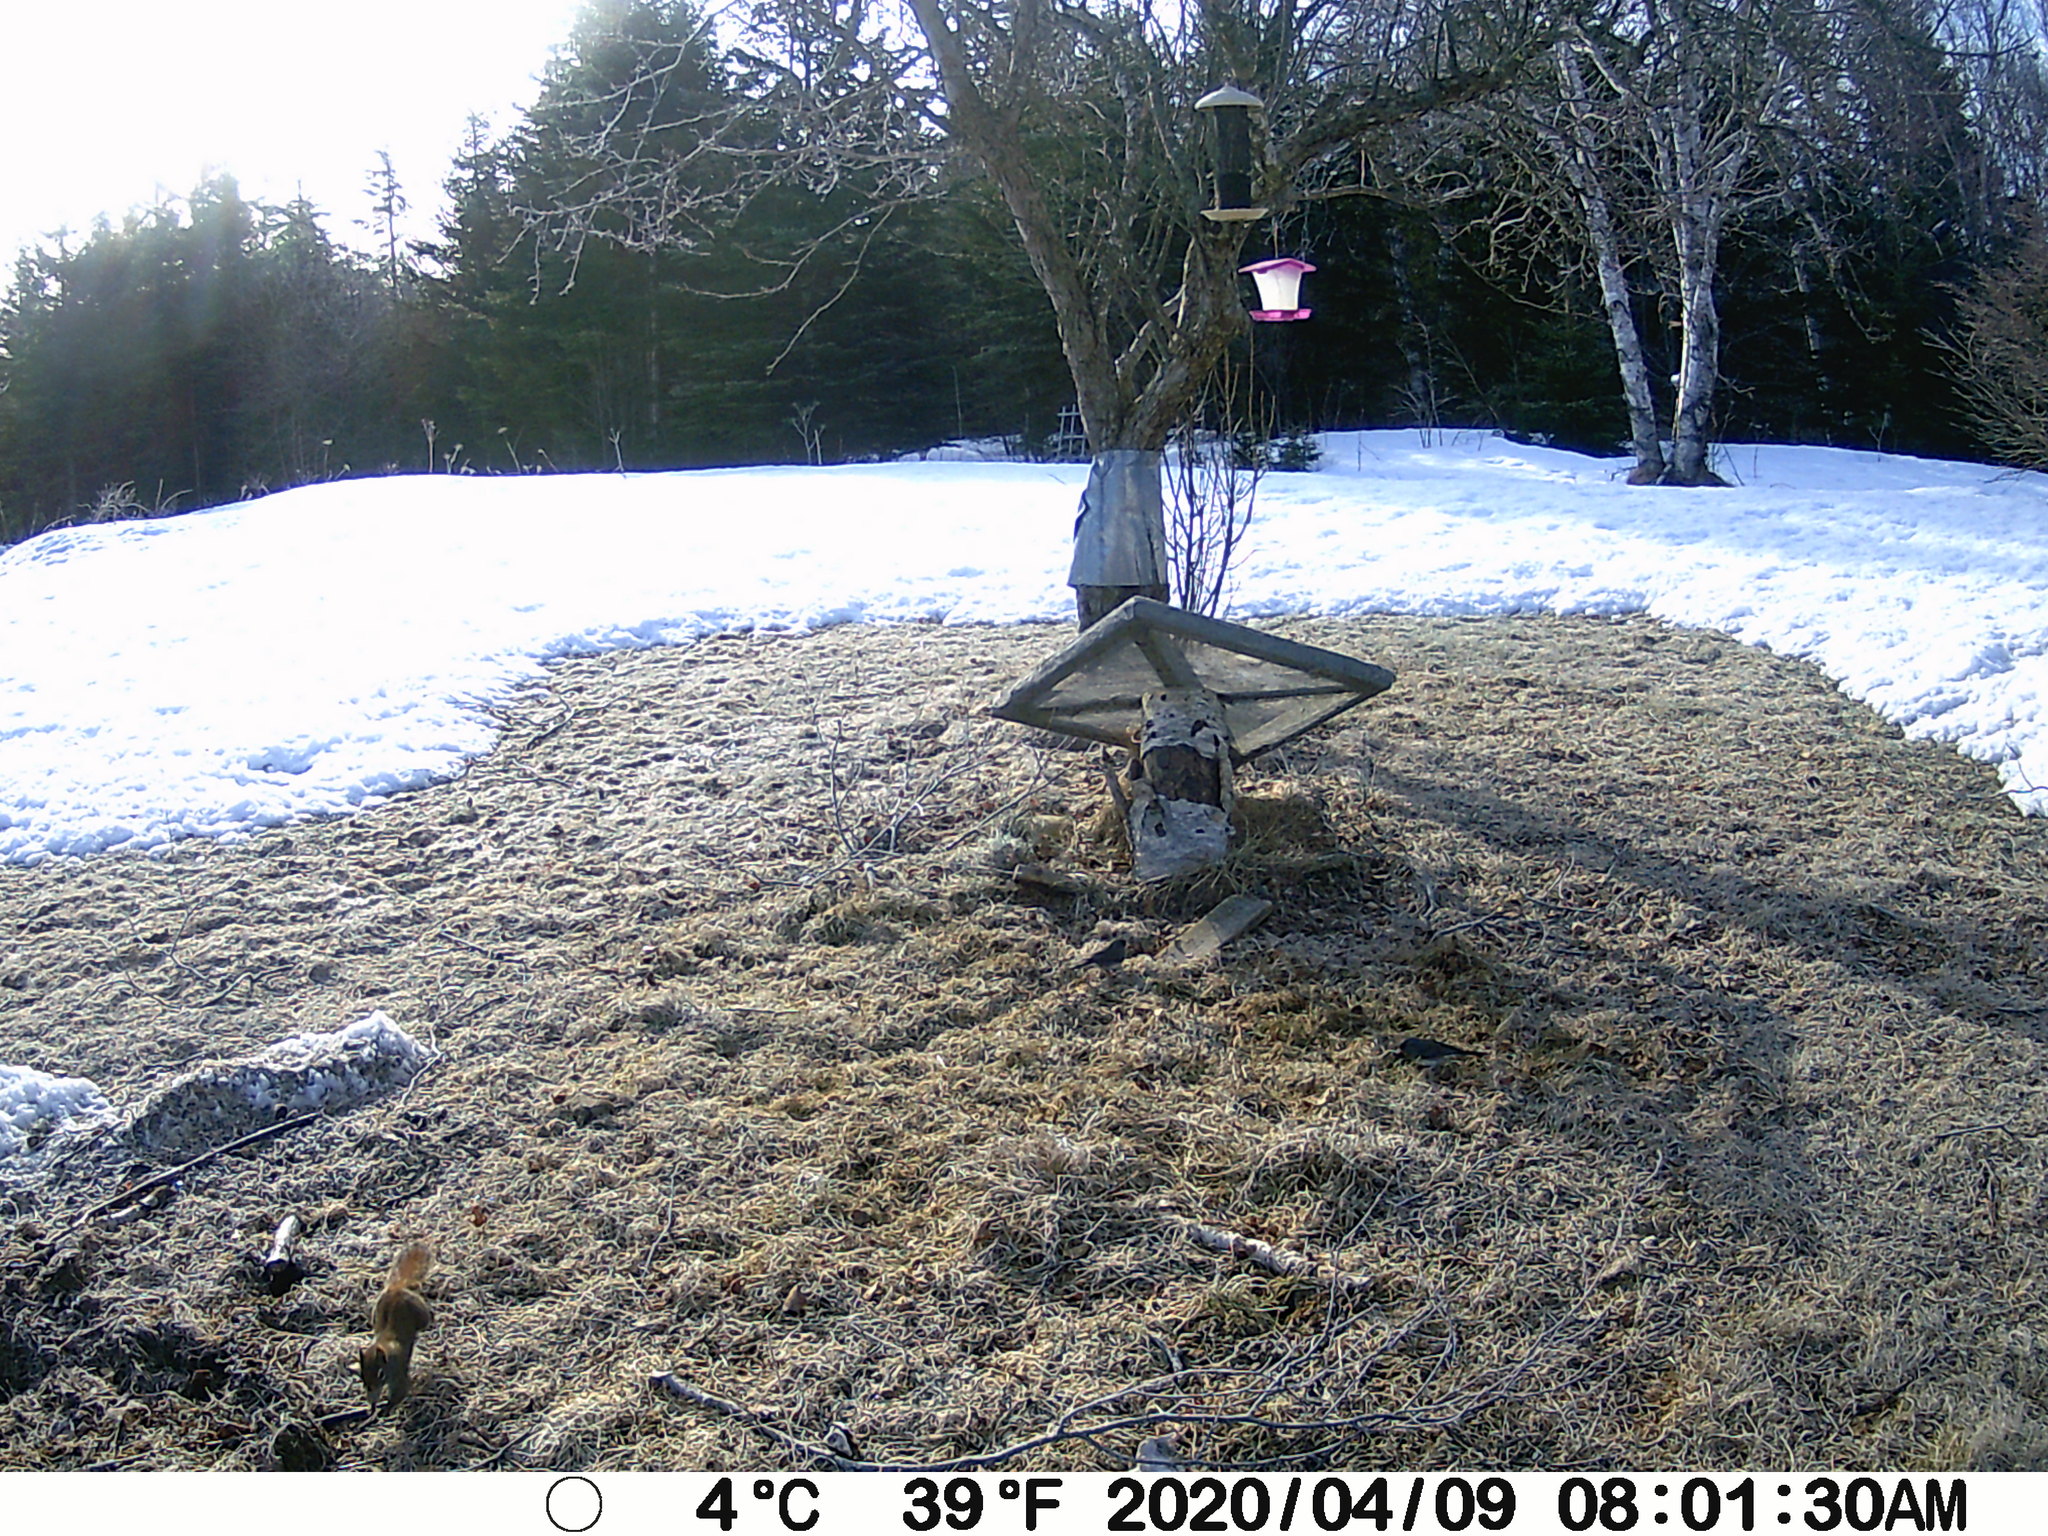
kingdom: Animalia
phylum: Chordata
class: Mammalia
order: Rodentia
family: Sciuridae
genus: Tamiasciurus
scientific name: Tamiasciurus hudsonicus
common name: Red squirrel
